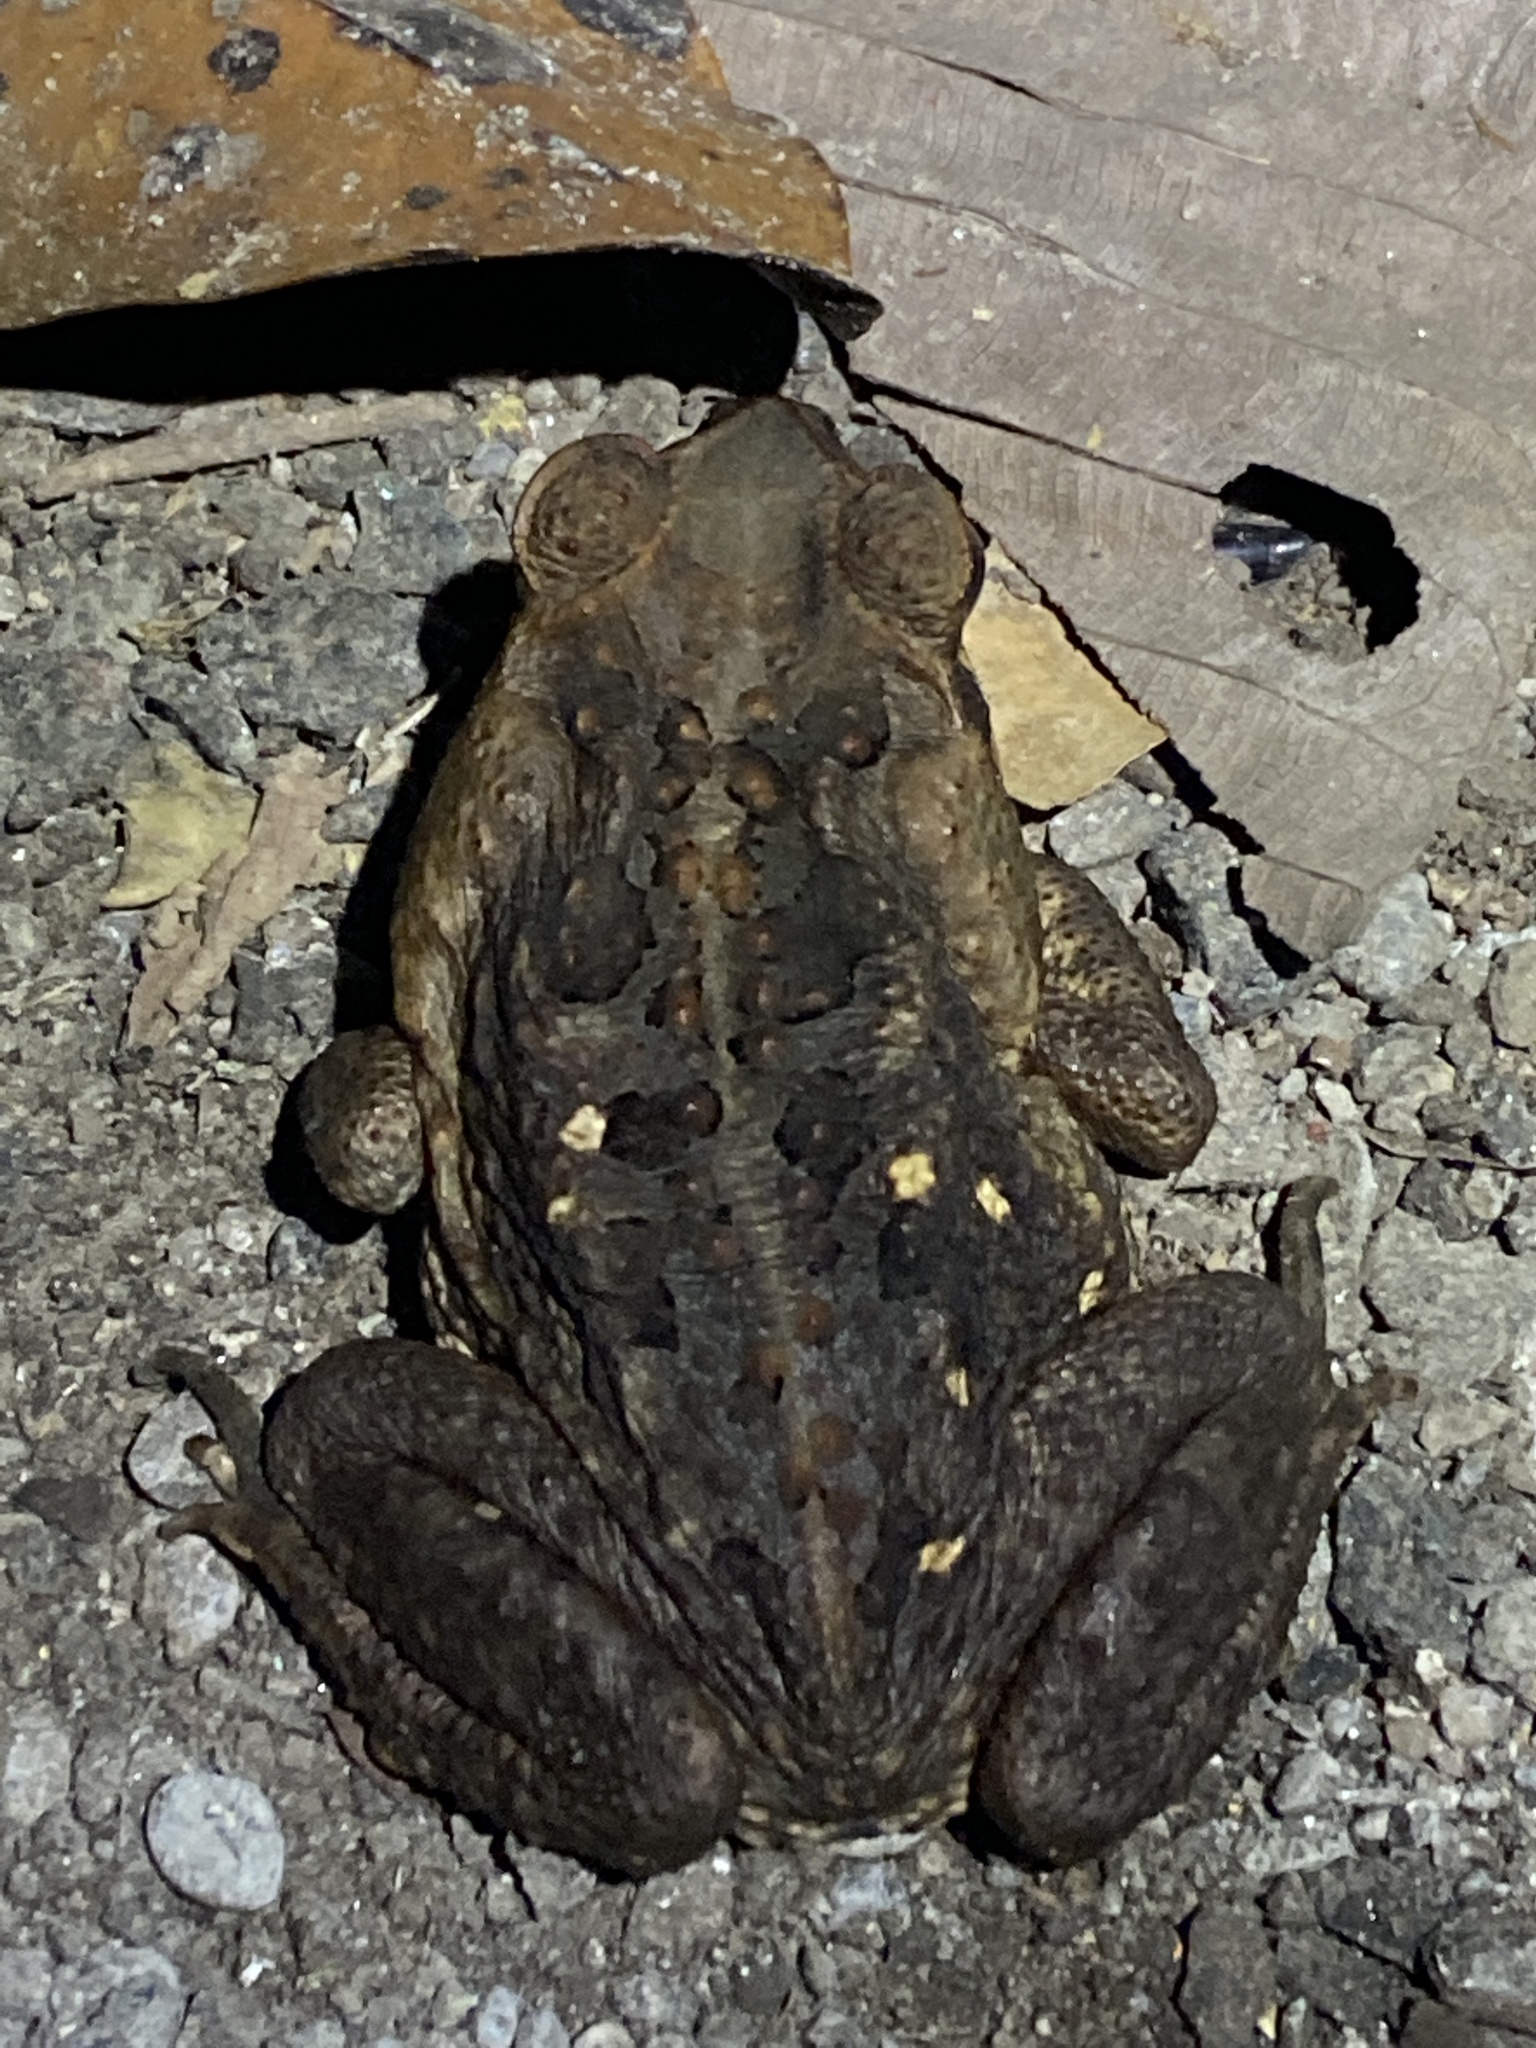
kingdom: Animalia
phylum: Chordata
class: Amphibia
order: Anura
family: Bufonidae
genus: Rhinella
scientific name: Rhinella horribilis
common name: Mesoamerican cane toad
